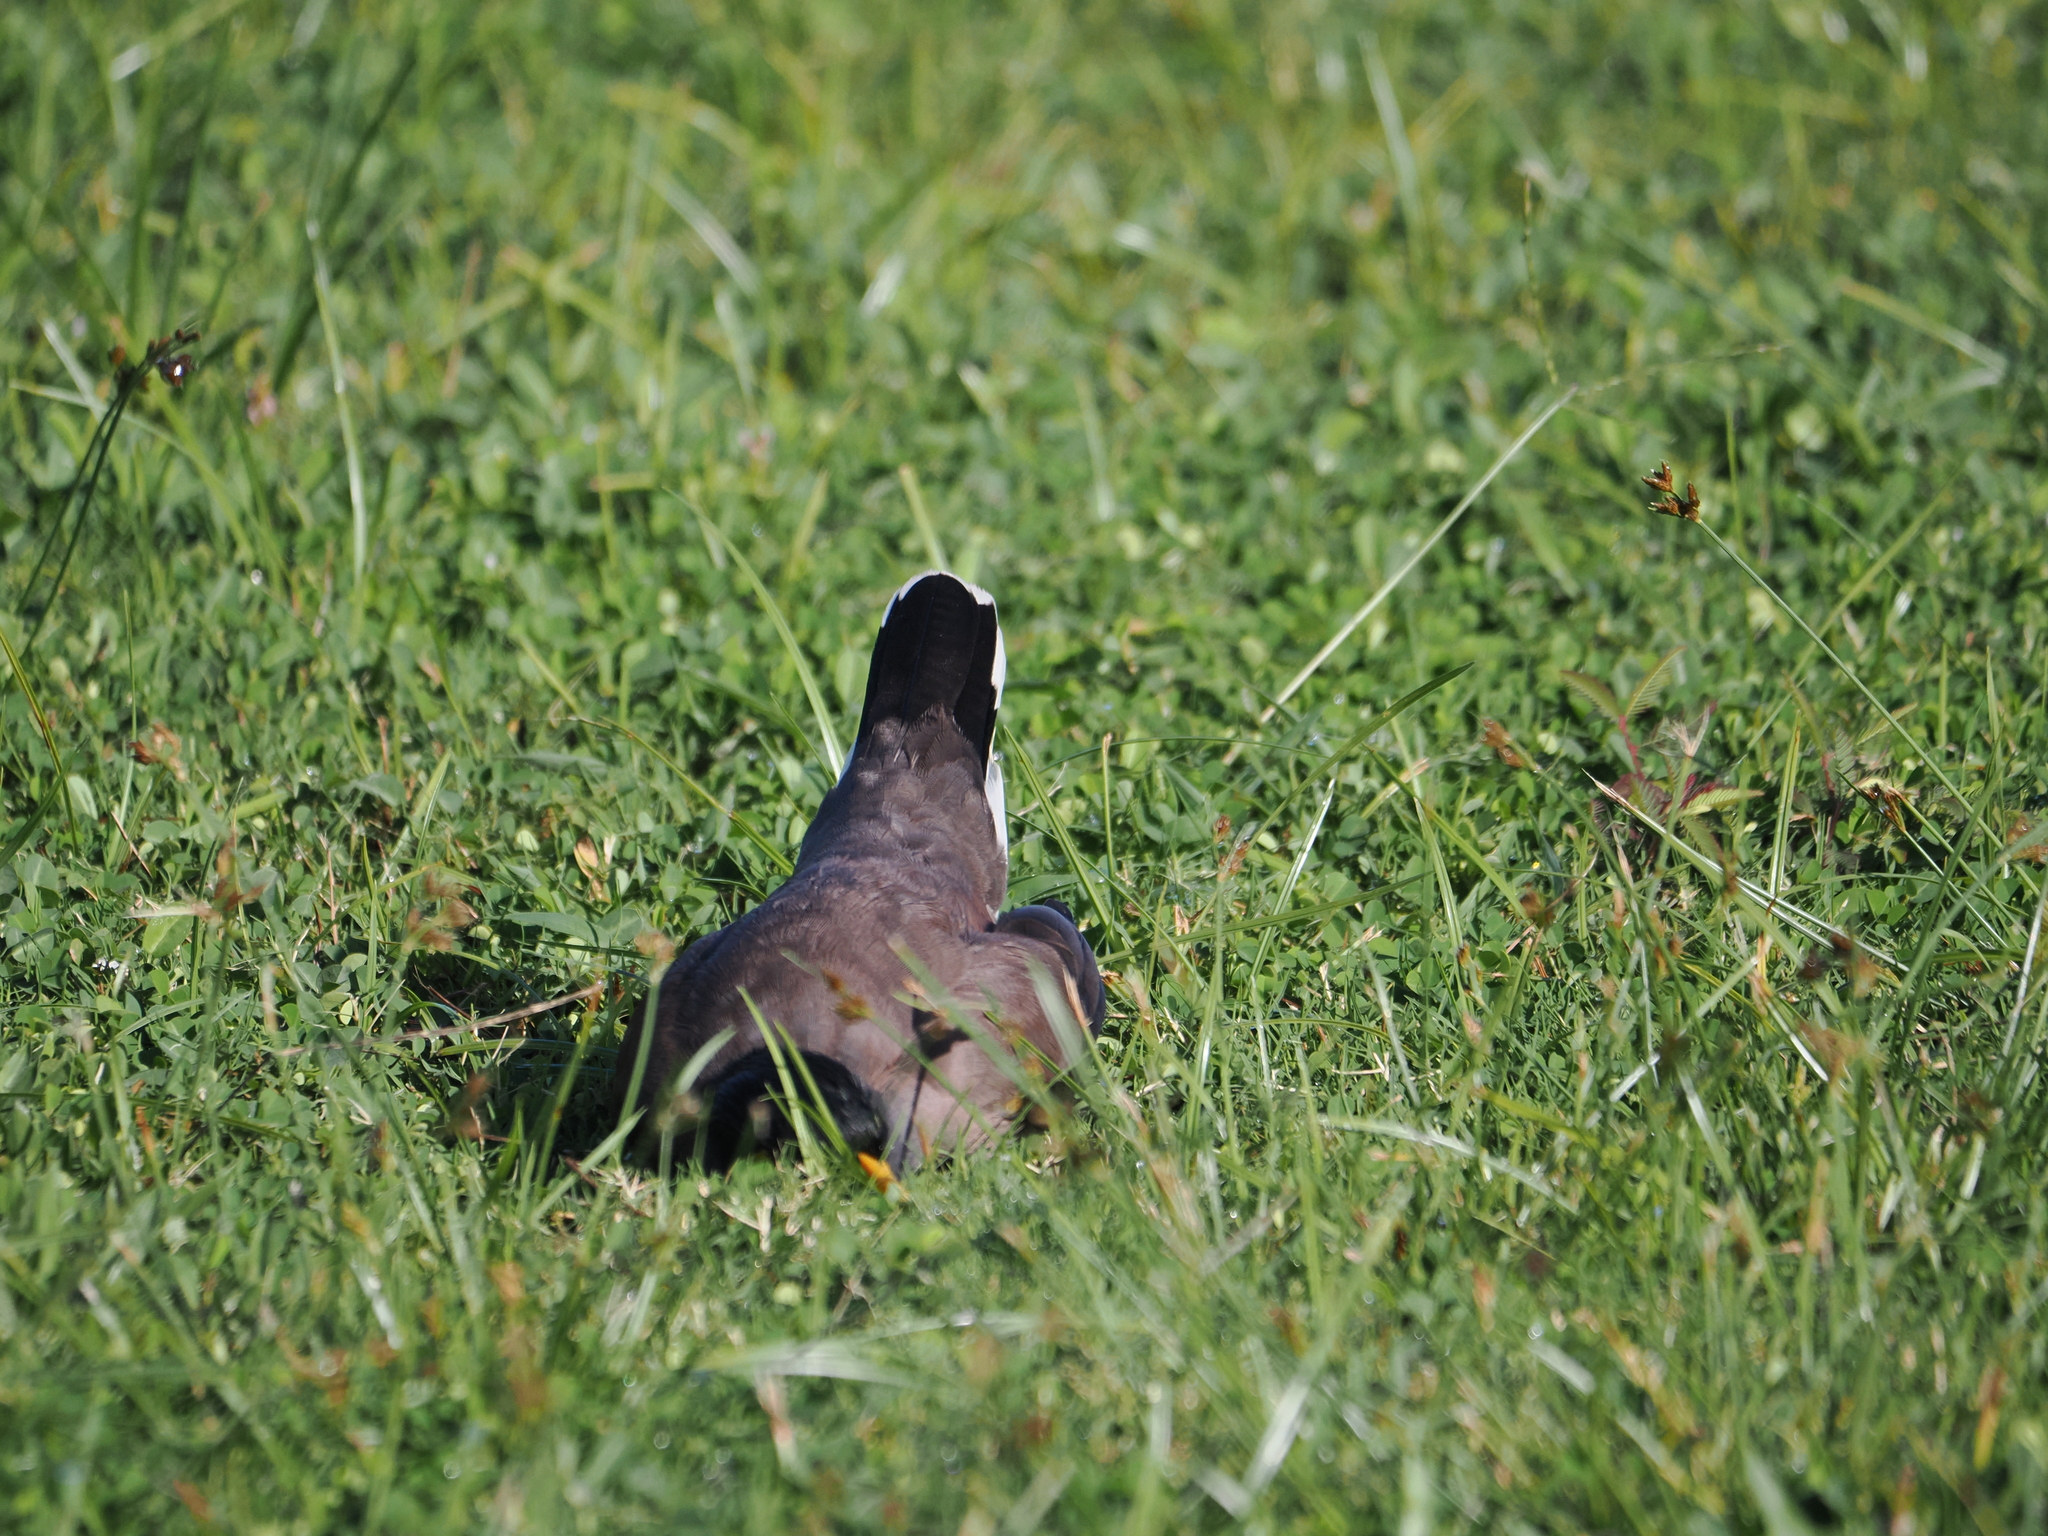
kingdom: Animalia
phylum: Chordata
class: Aves
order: Passeriformes
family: Sturnidae
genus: Acridotheres
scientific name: Acridotheres tristis
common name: Common myna
